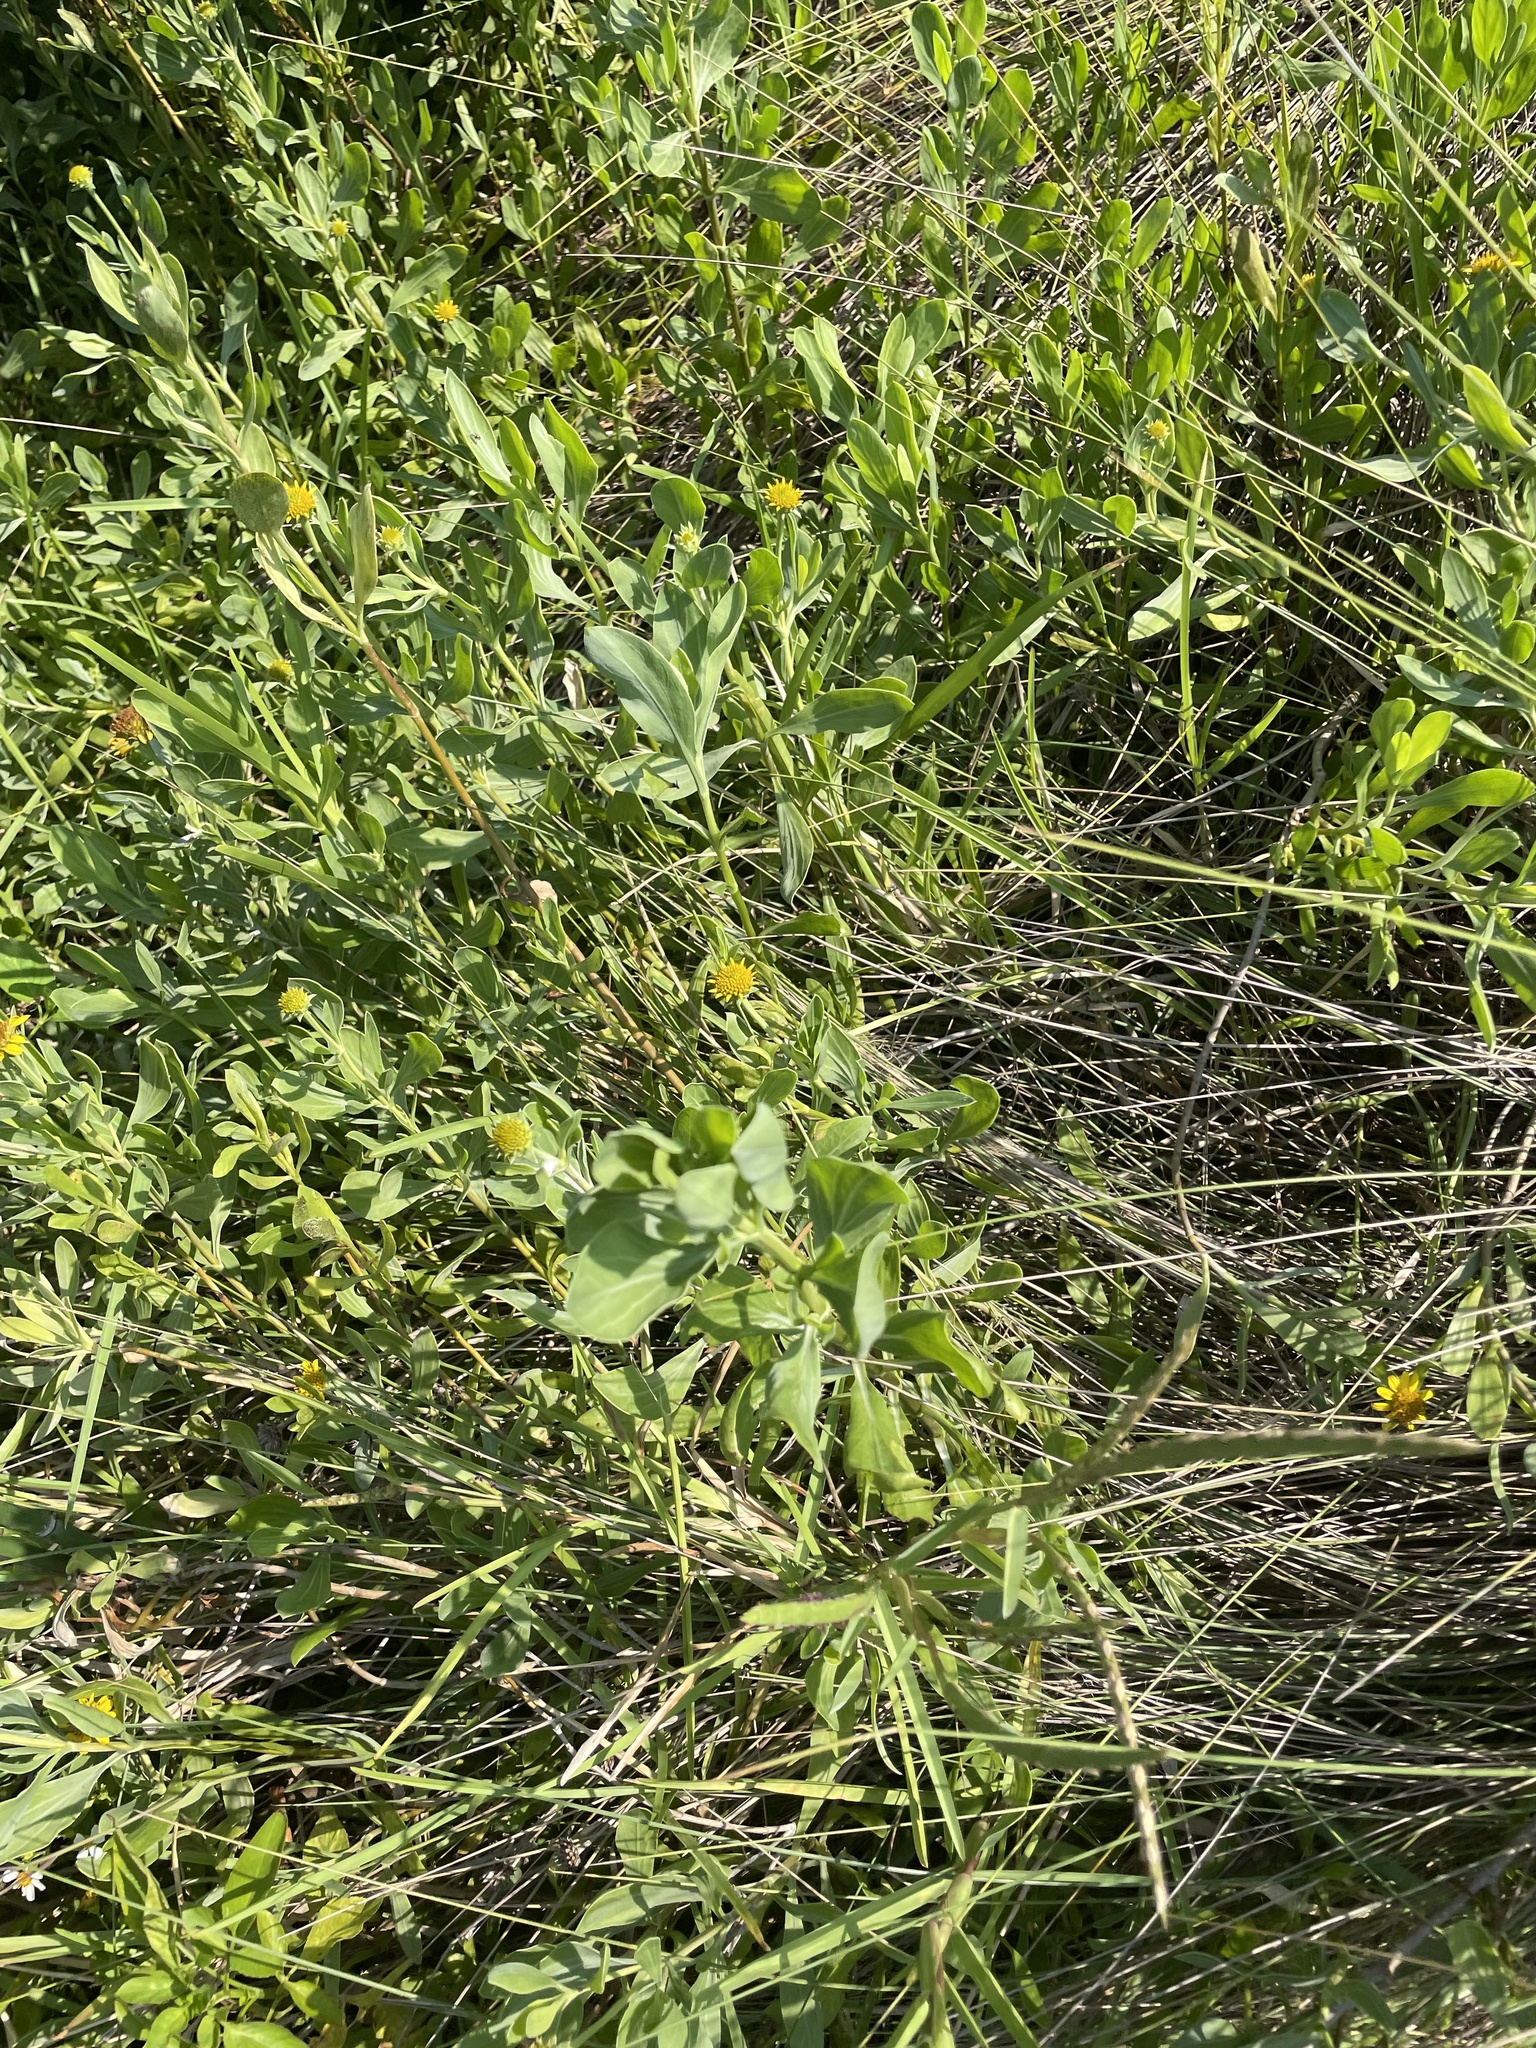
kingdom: Plantae
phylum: Tracheophyta
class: Magnoliopsida
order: Asterales
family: Asteraceae
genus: Borrichia
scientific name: Borrichia frutescens
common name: Sea oxeye
